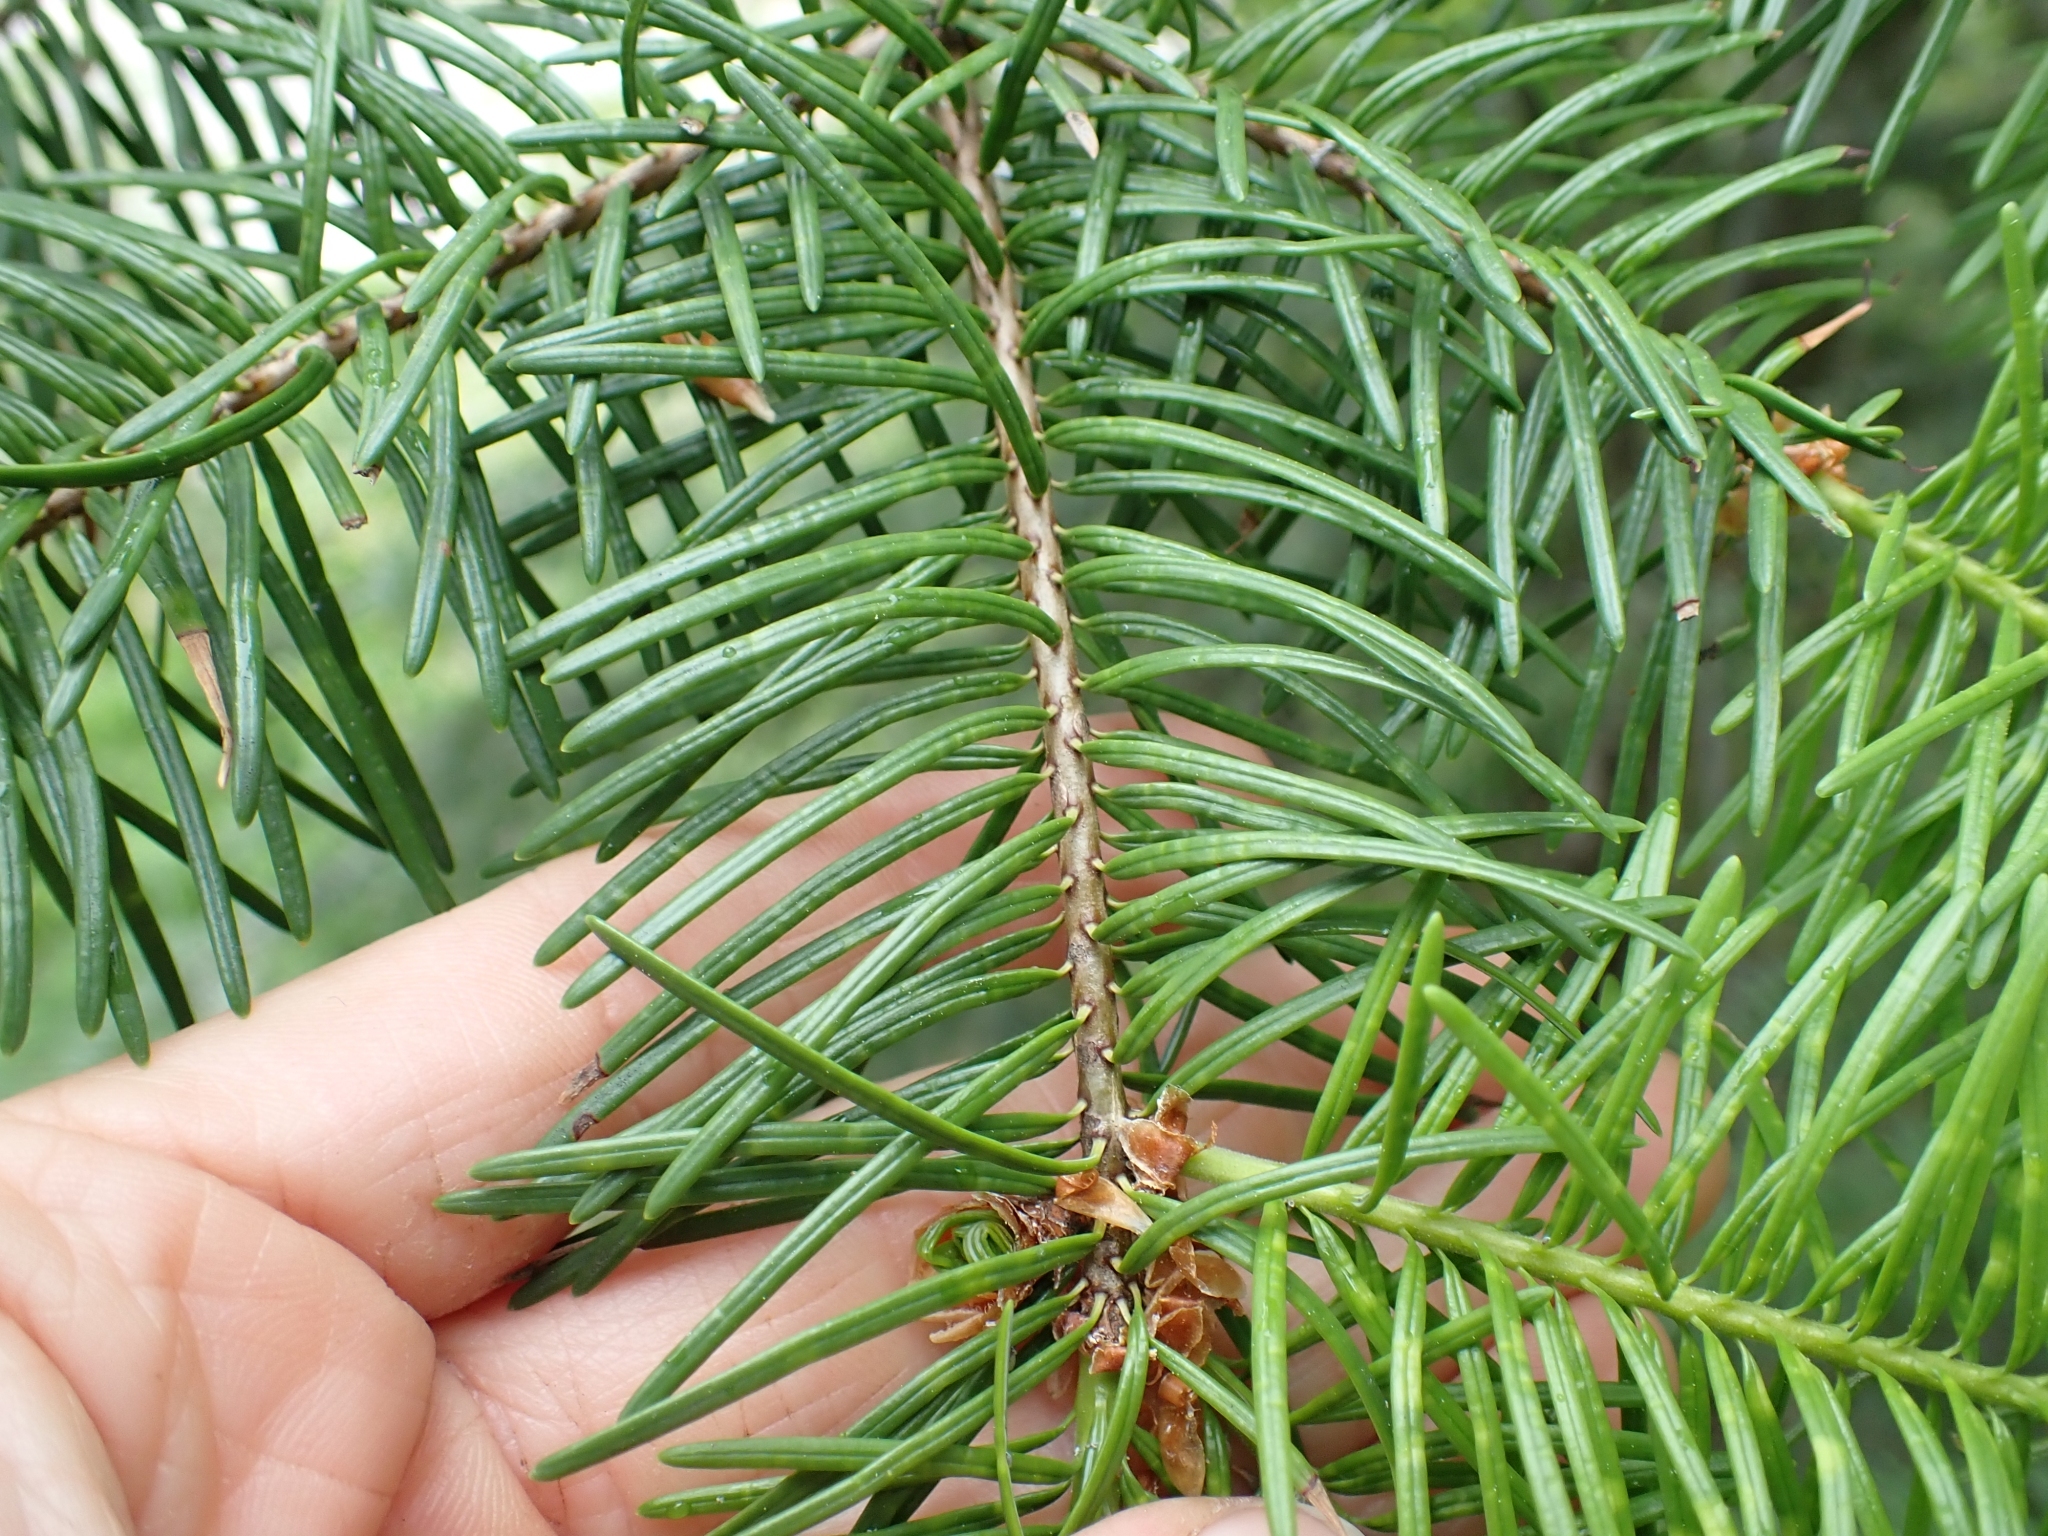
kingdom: Plantae
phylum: Tracheophyta
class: Pinopsida
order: Pinales
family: Pinaceae
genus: Pseudotsuga
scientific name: Pseudotsuga menziesii
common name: Douglas fir
